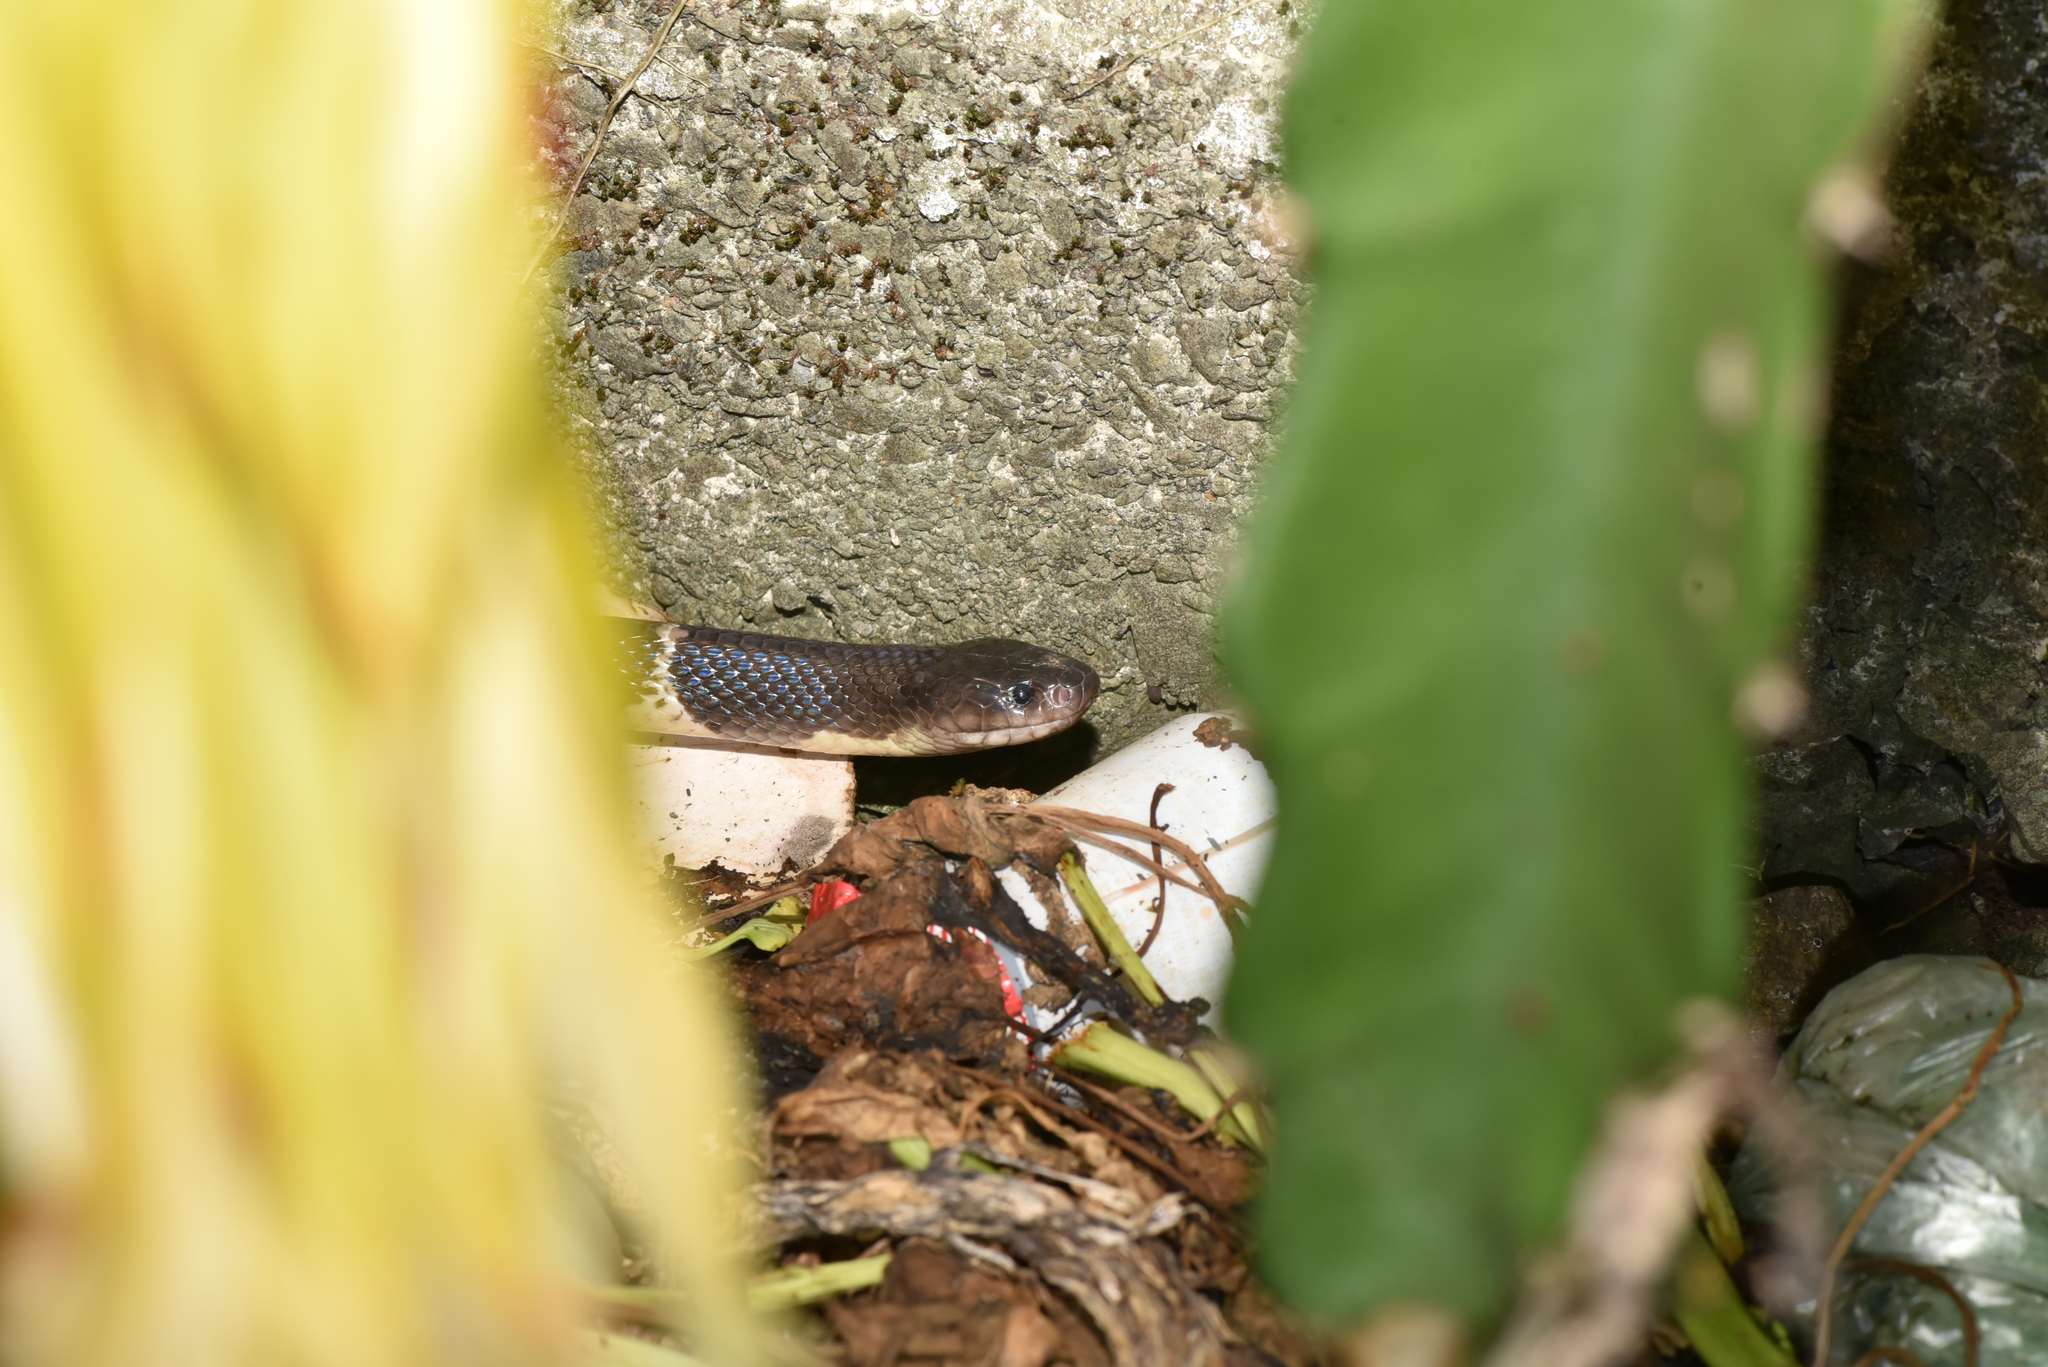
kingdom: Animalia
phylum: Chordata
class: Squamata
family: Elapidae
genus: Bungarus
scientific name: Bungarus multicinctus
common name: Many-banded krait
